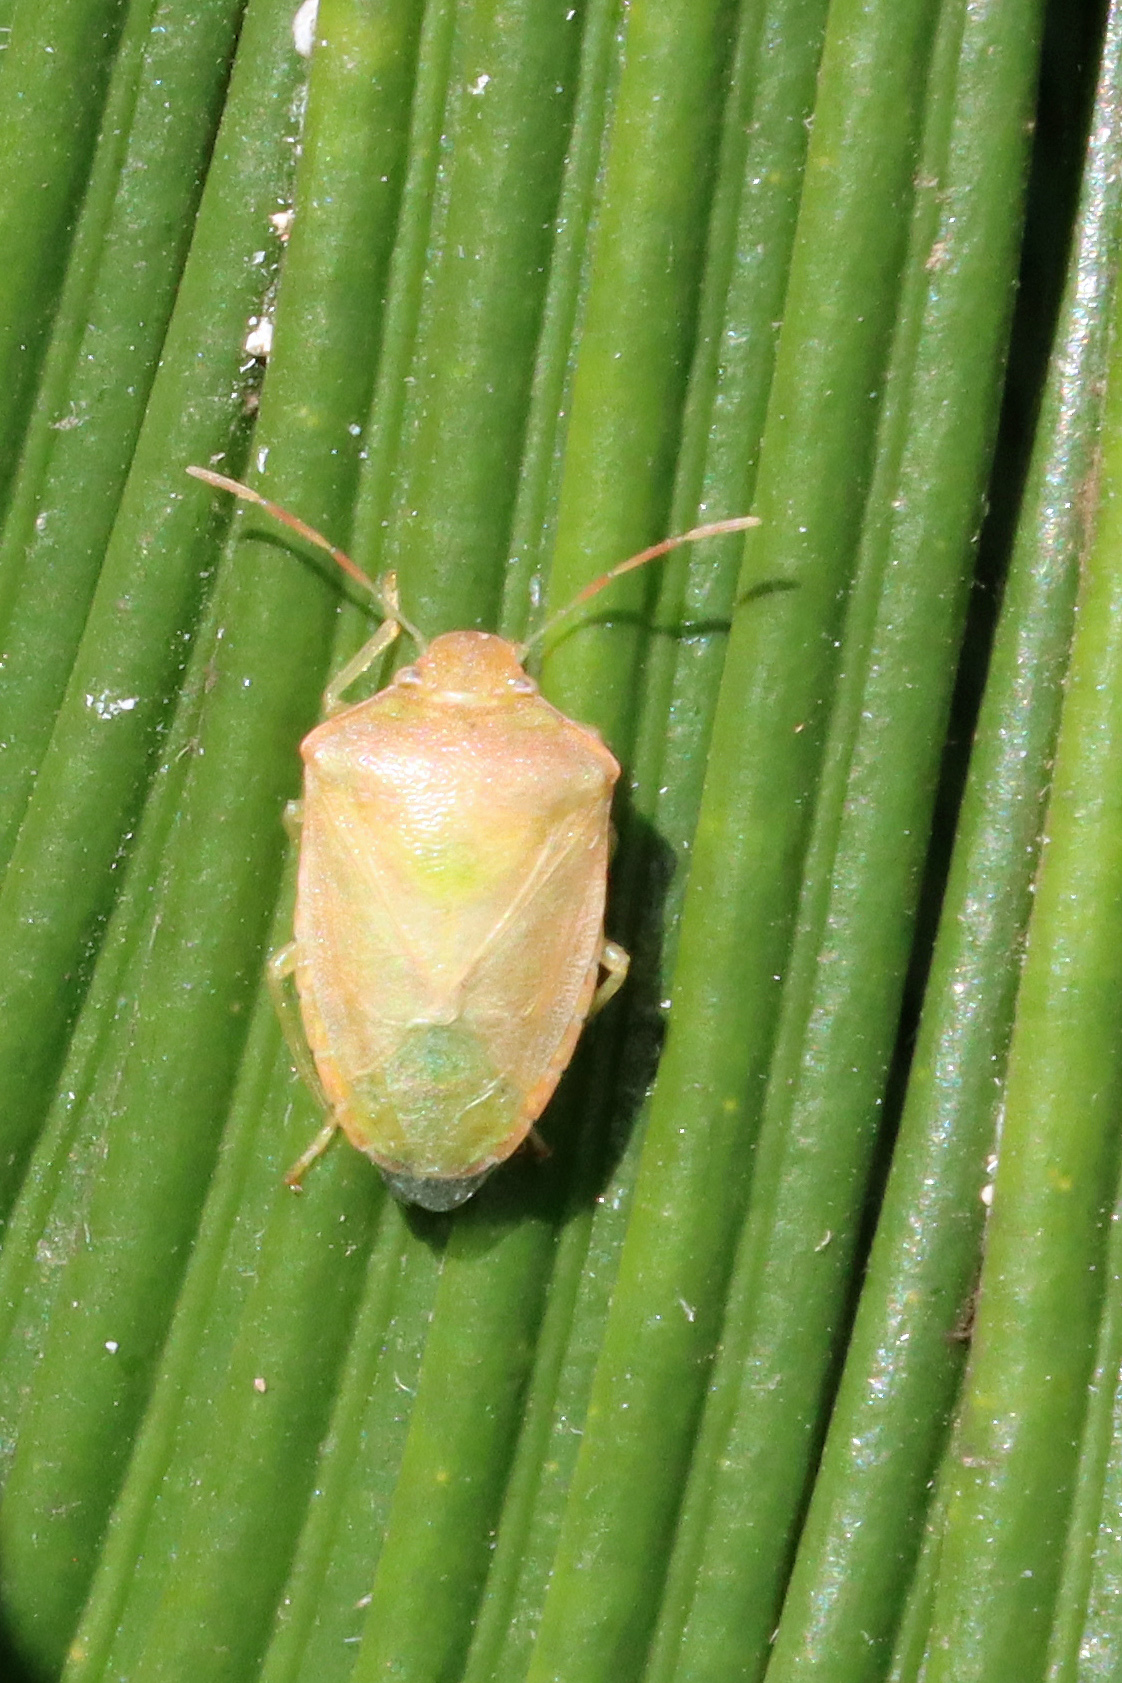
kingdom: Animalia
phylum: Arthropoda
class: Insecta
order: Hemiptera
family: Pentatomidae
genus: Acrosternum
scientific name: Acrosternum heegeri
